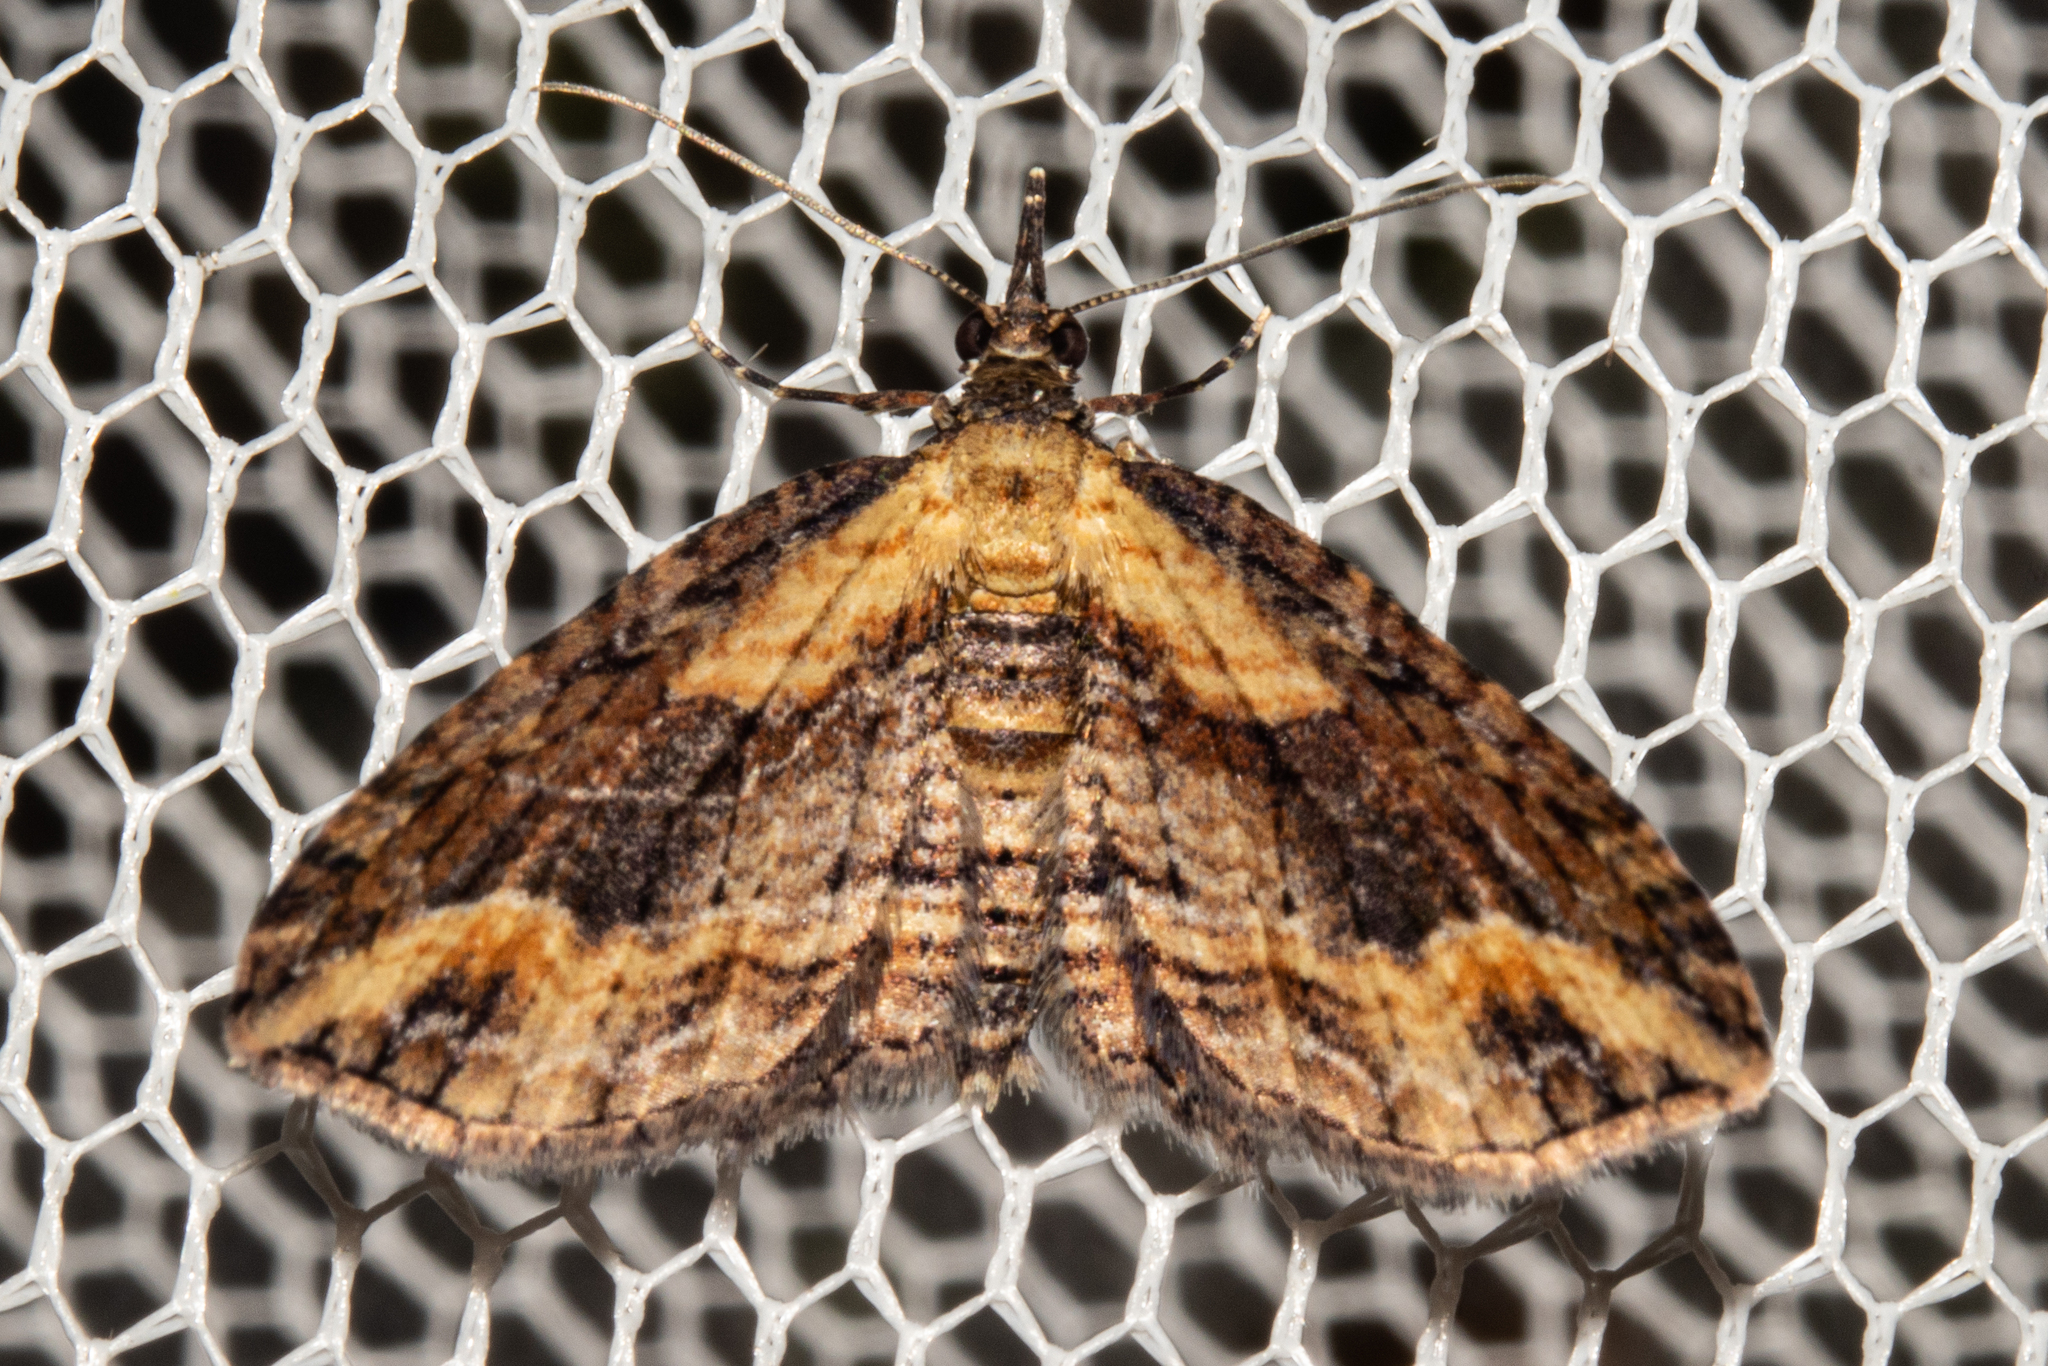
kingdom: Animalia
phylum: Arthropoda
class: Insecta
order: Lepidoptera
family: Geometridae
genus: Chloroclystis
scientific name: Chloroclystis filata
